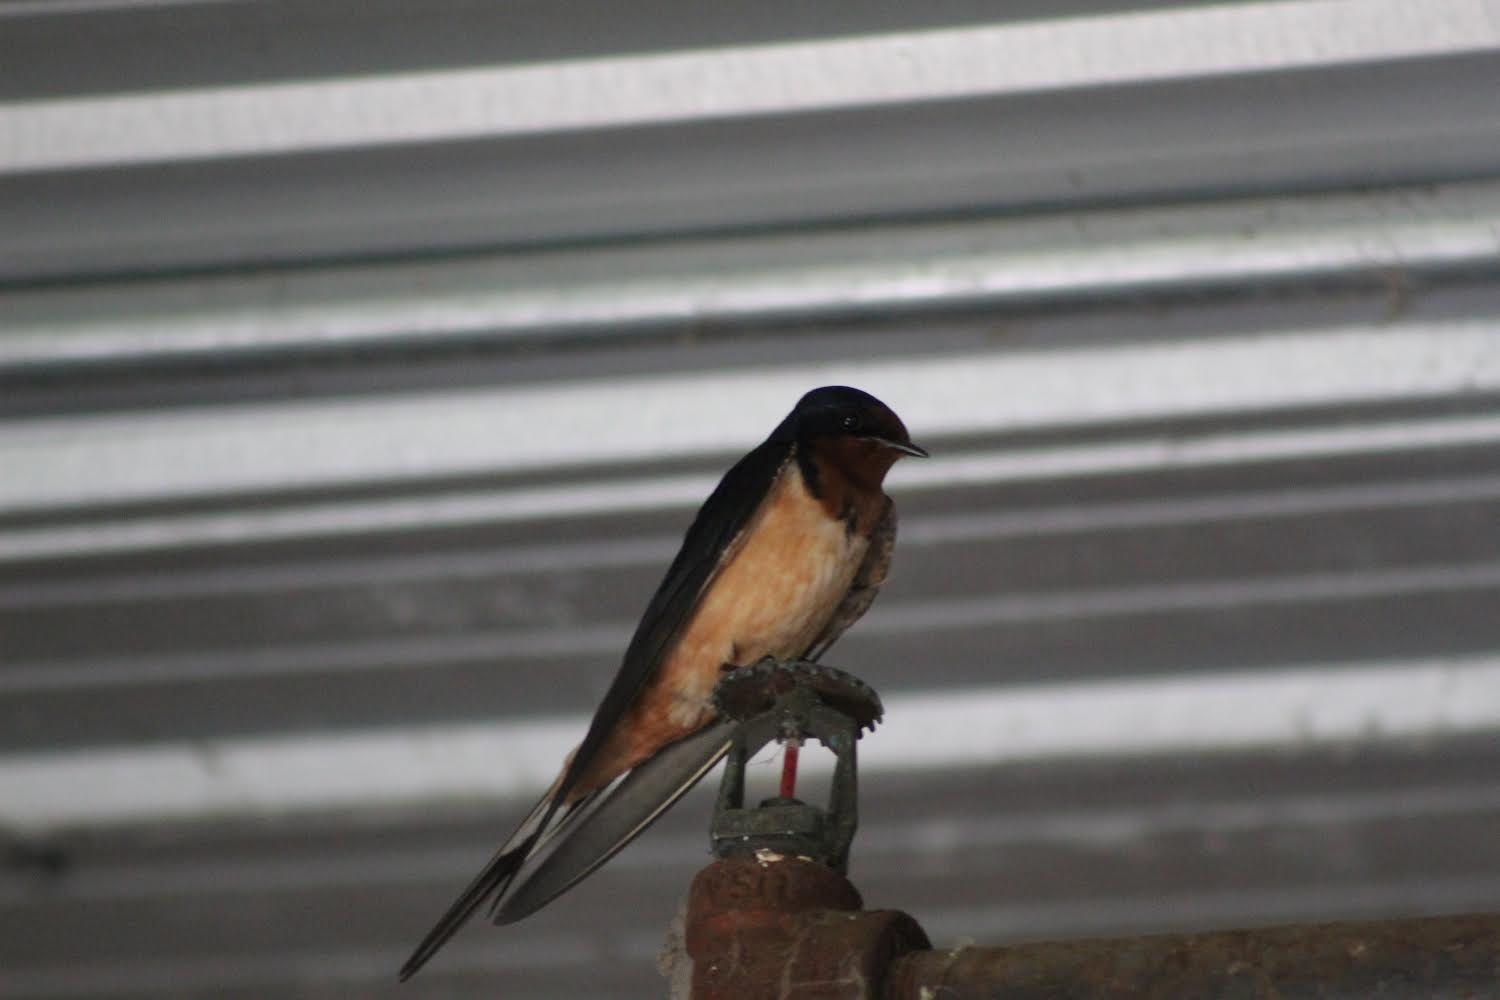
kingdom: Animalia
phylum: Chordata
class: Aves
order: Passeriformes
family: Hirundinidae
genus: Hirundo
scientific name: Hirundo rustica
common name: Barn swallow
